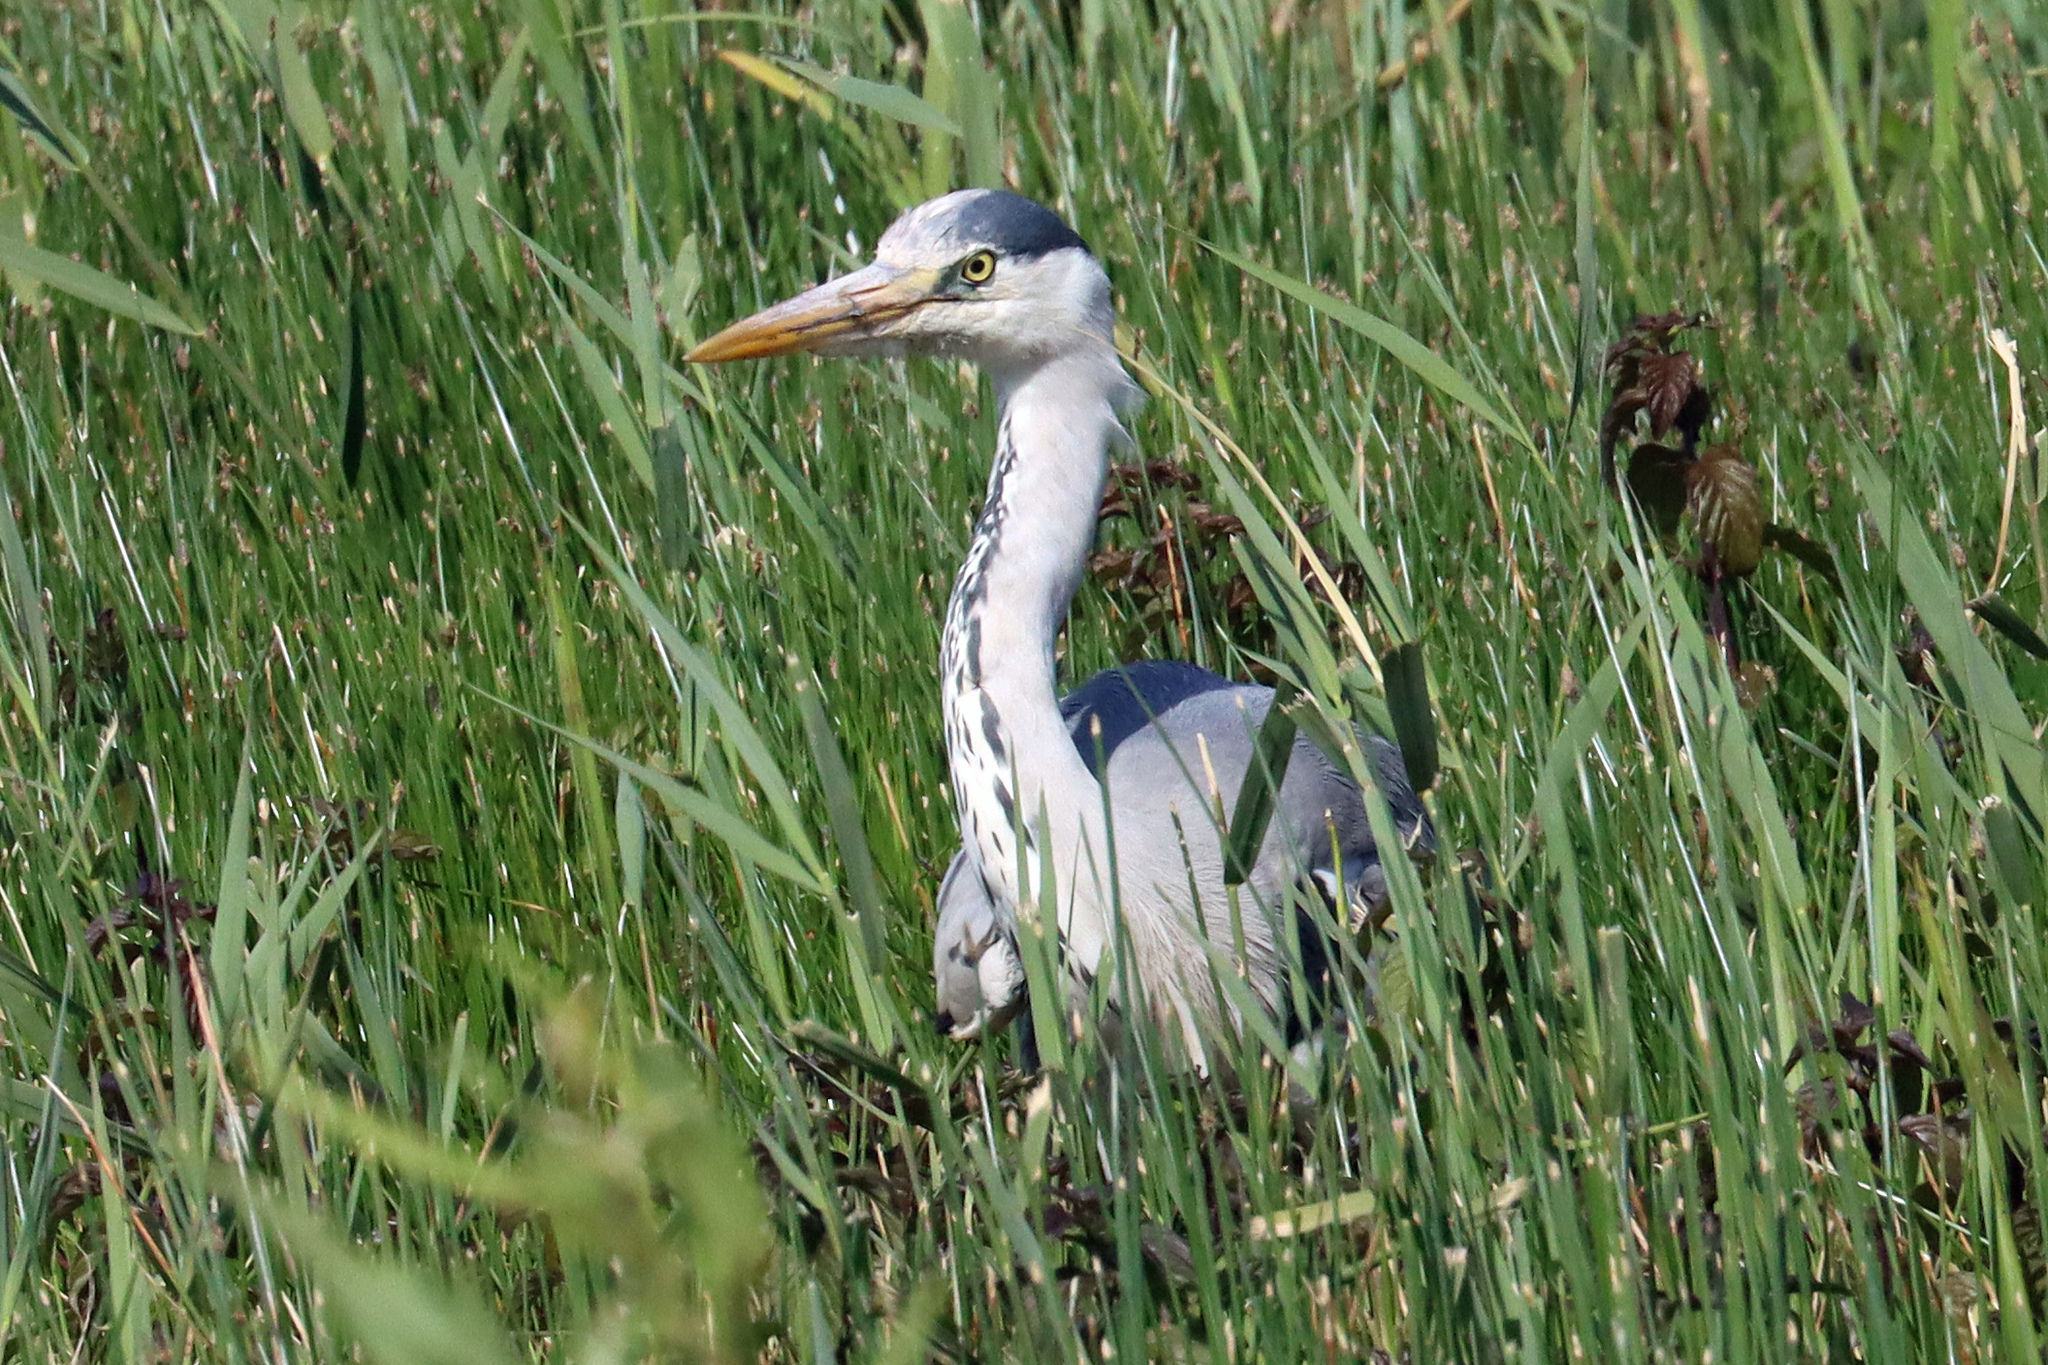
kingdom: Animalia
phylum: Chordata
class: Aves
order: Pelecaniformes
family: Ardeidae
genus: Ardea
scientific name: Ardea cinerea
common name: Grey heron
